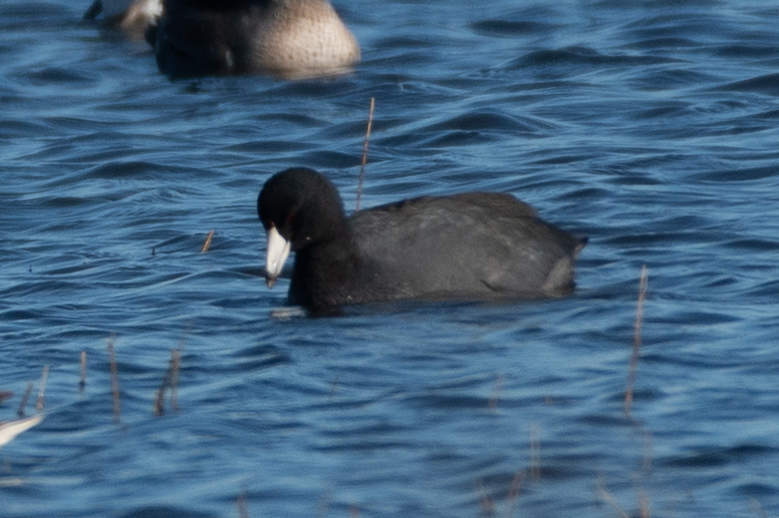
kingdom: Animalia
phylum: Chordata
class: Aves
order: Gruiformes
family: Rallidae
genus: Fulica
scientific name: Fulica americana
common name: American coot
